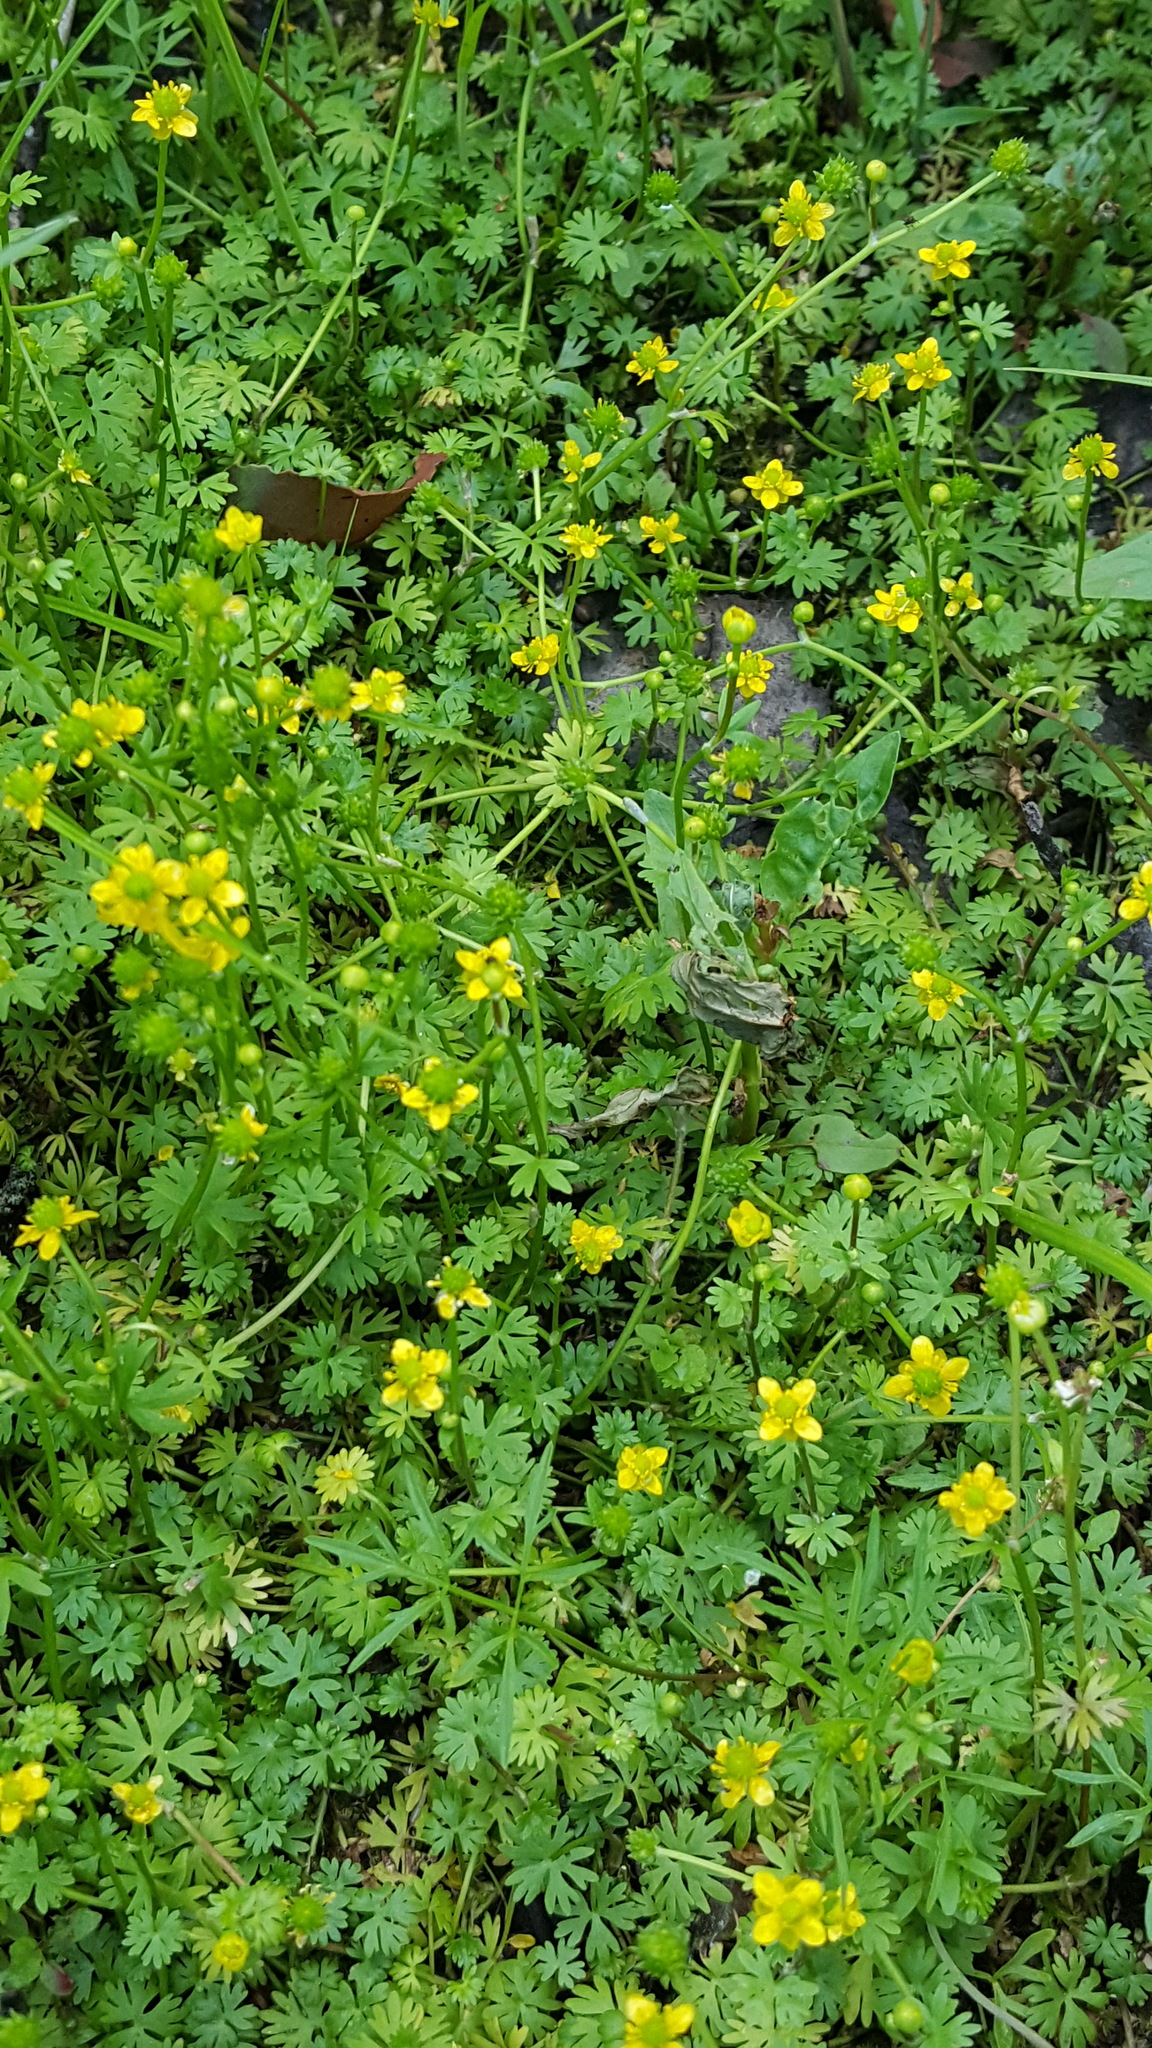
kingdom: Plantae
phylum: Tracheophyta
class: Magnoliopsida
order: Ranunculales
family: Ranunculaceae
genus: Ranunculus
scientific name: Ranunculus gmelinii
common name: Gmelin's buttercup
